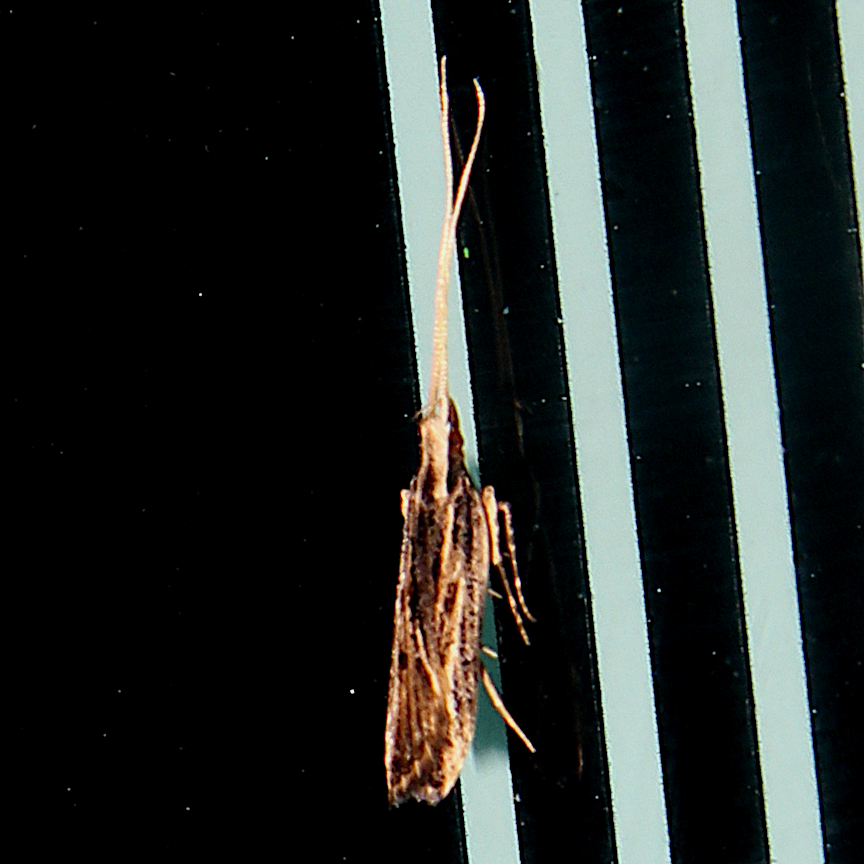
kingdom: Animalia
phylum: Arthropoda
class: Insecta
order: Lepidoptera
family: Lecithoceridae
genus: Sarisophora
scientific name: Sarisophora leucoscia
